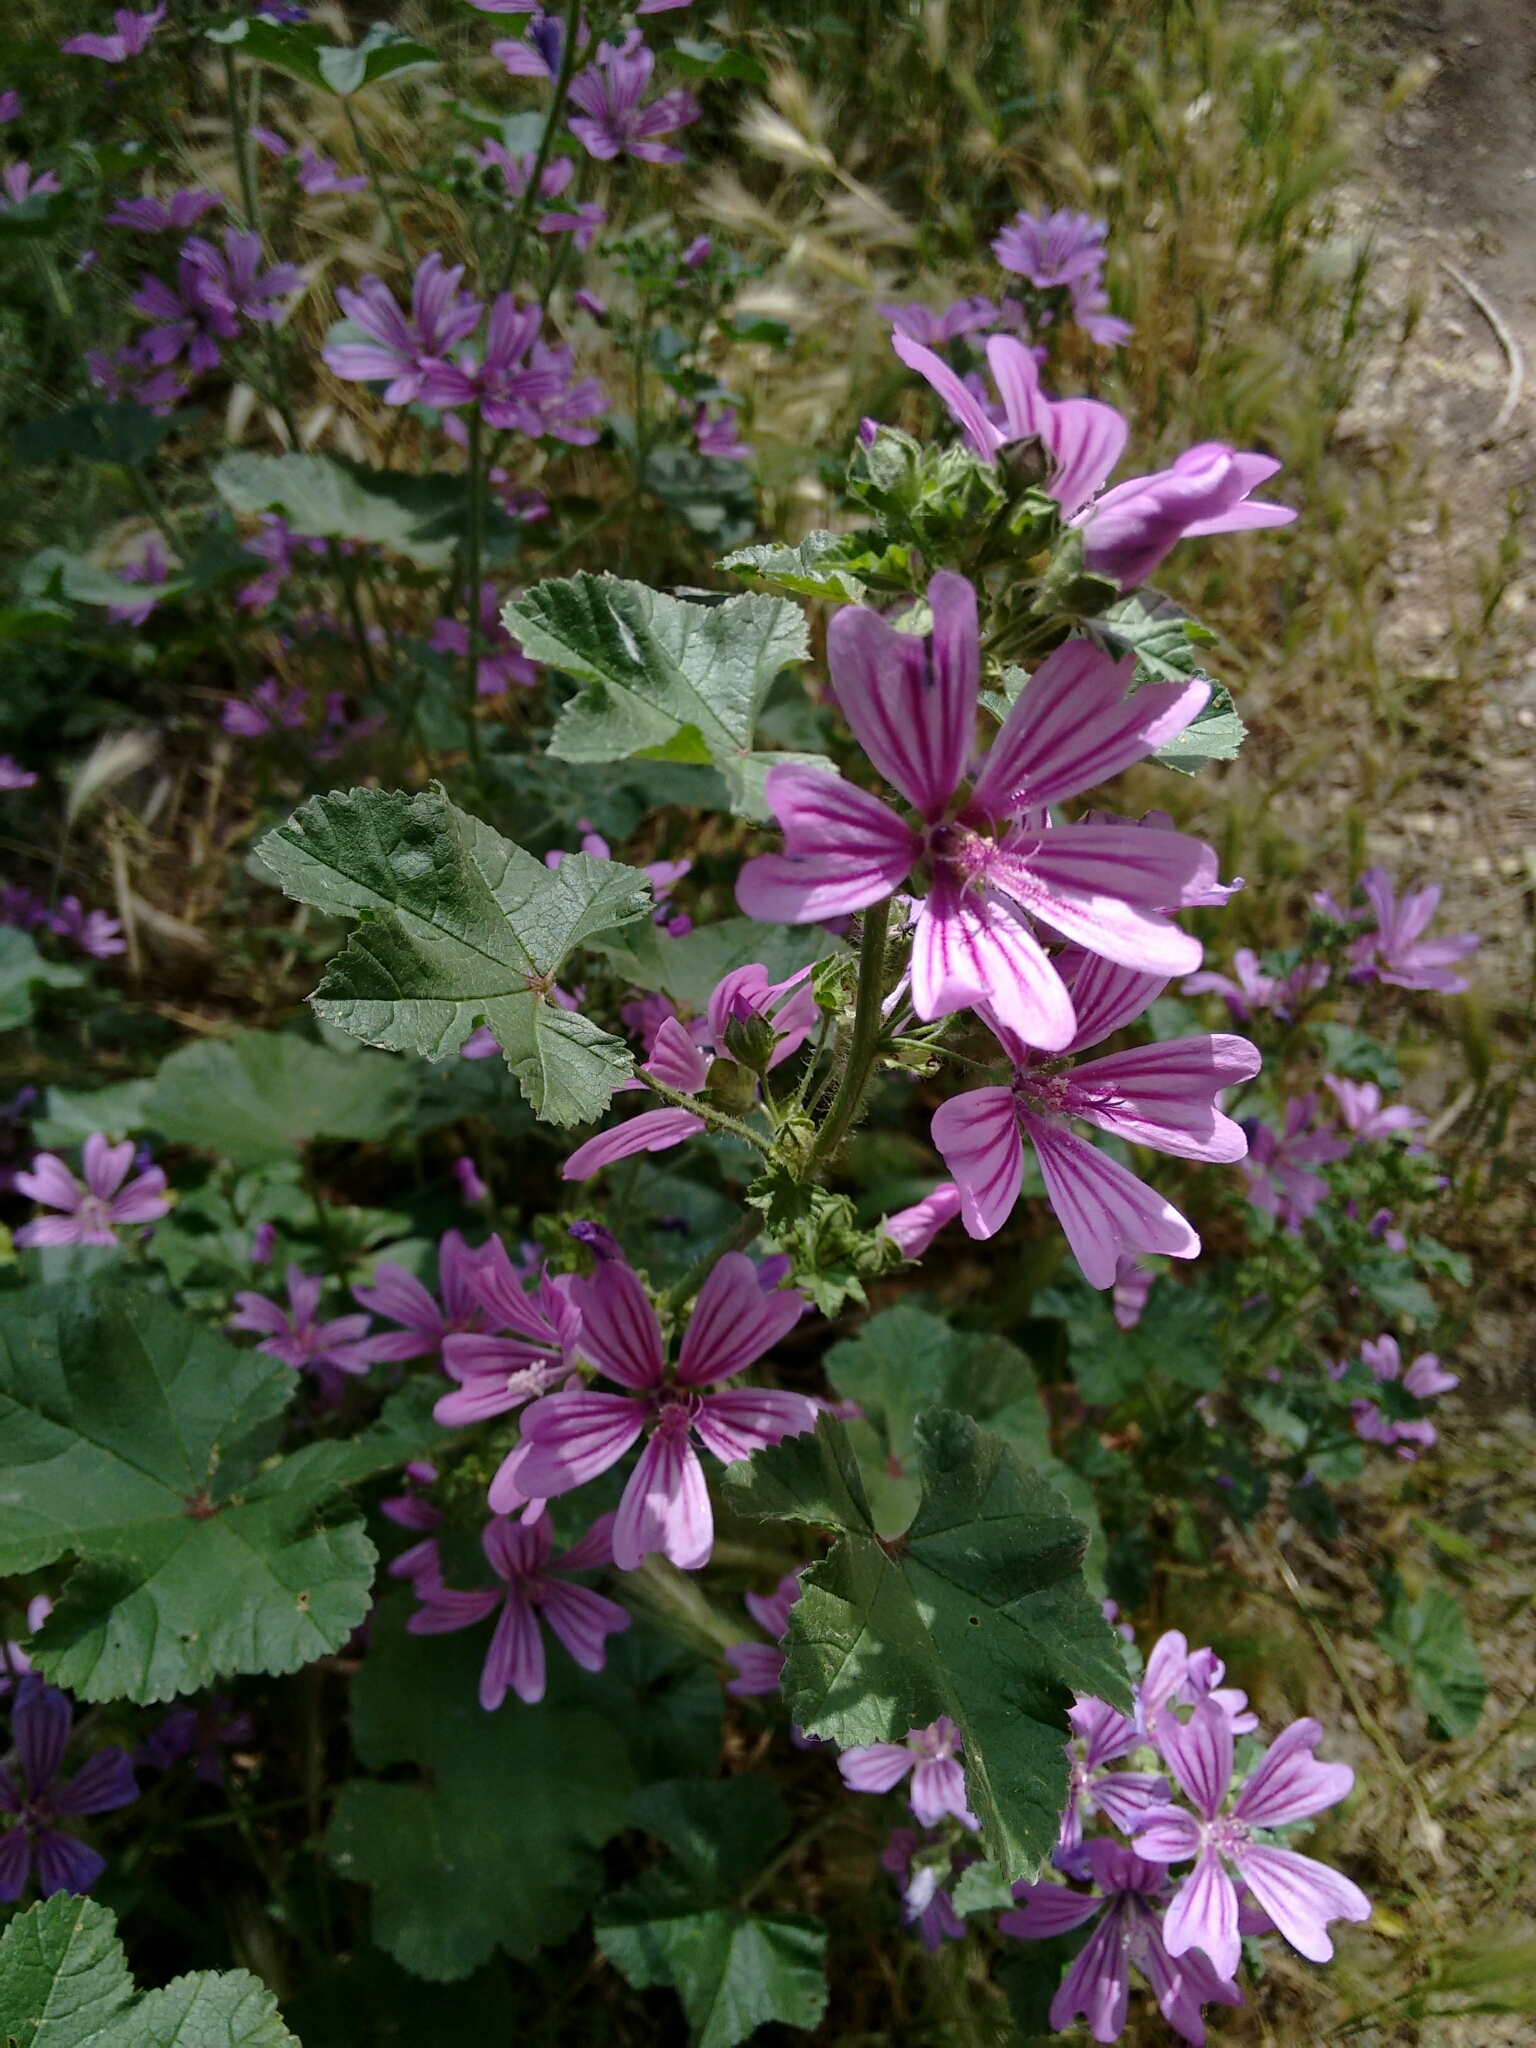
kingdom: Plantae
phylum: Tracheophyta
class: Magnoliopsida
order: Malvales
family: Malvaceae
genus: Malva
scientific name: Malva sylvestris
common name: Common mallow
